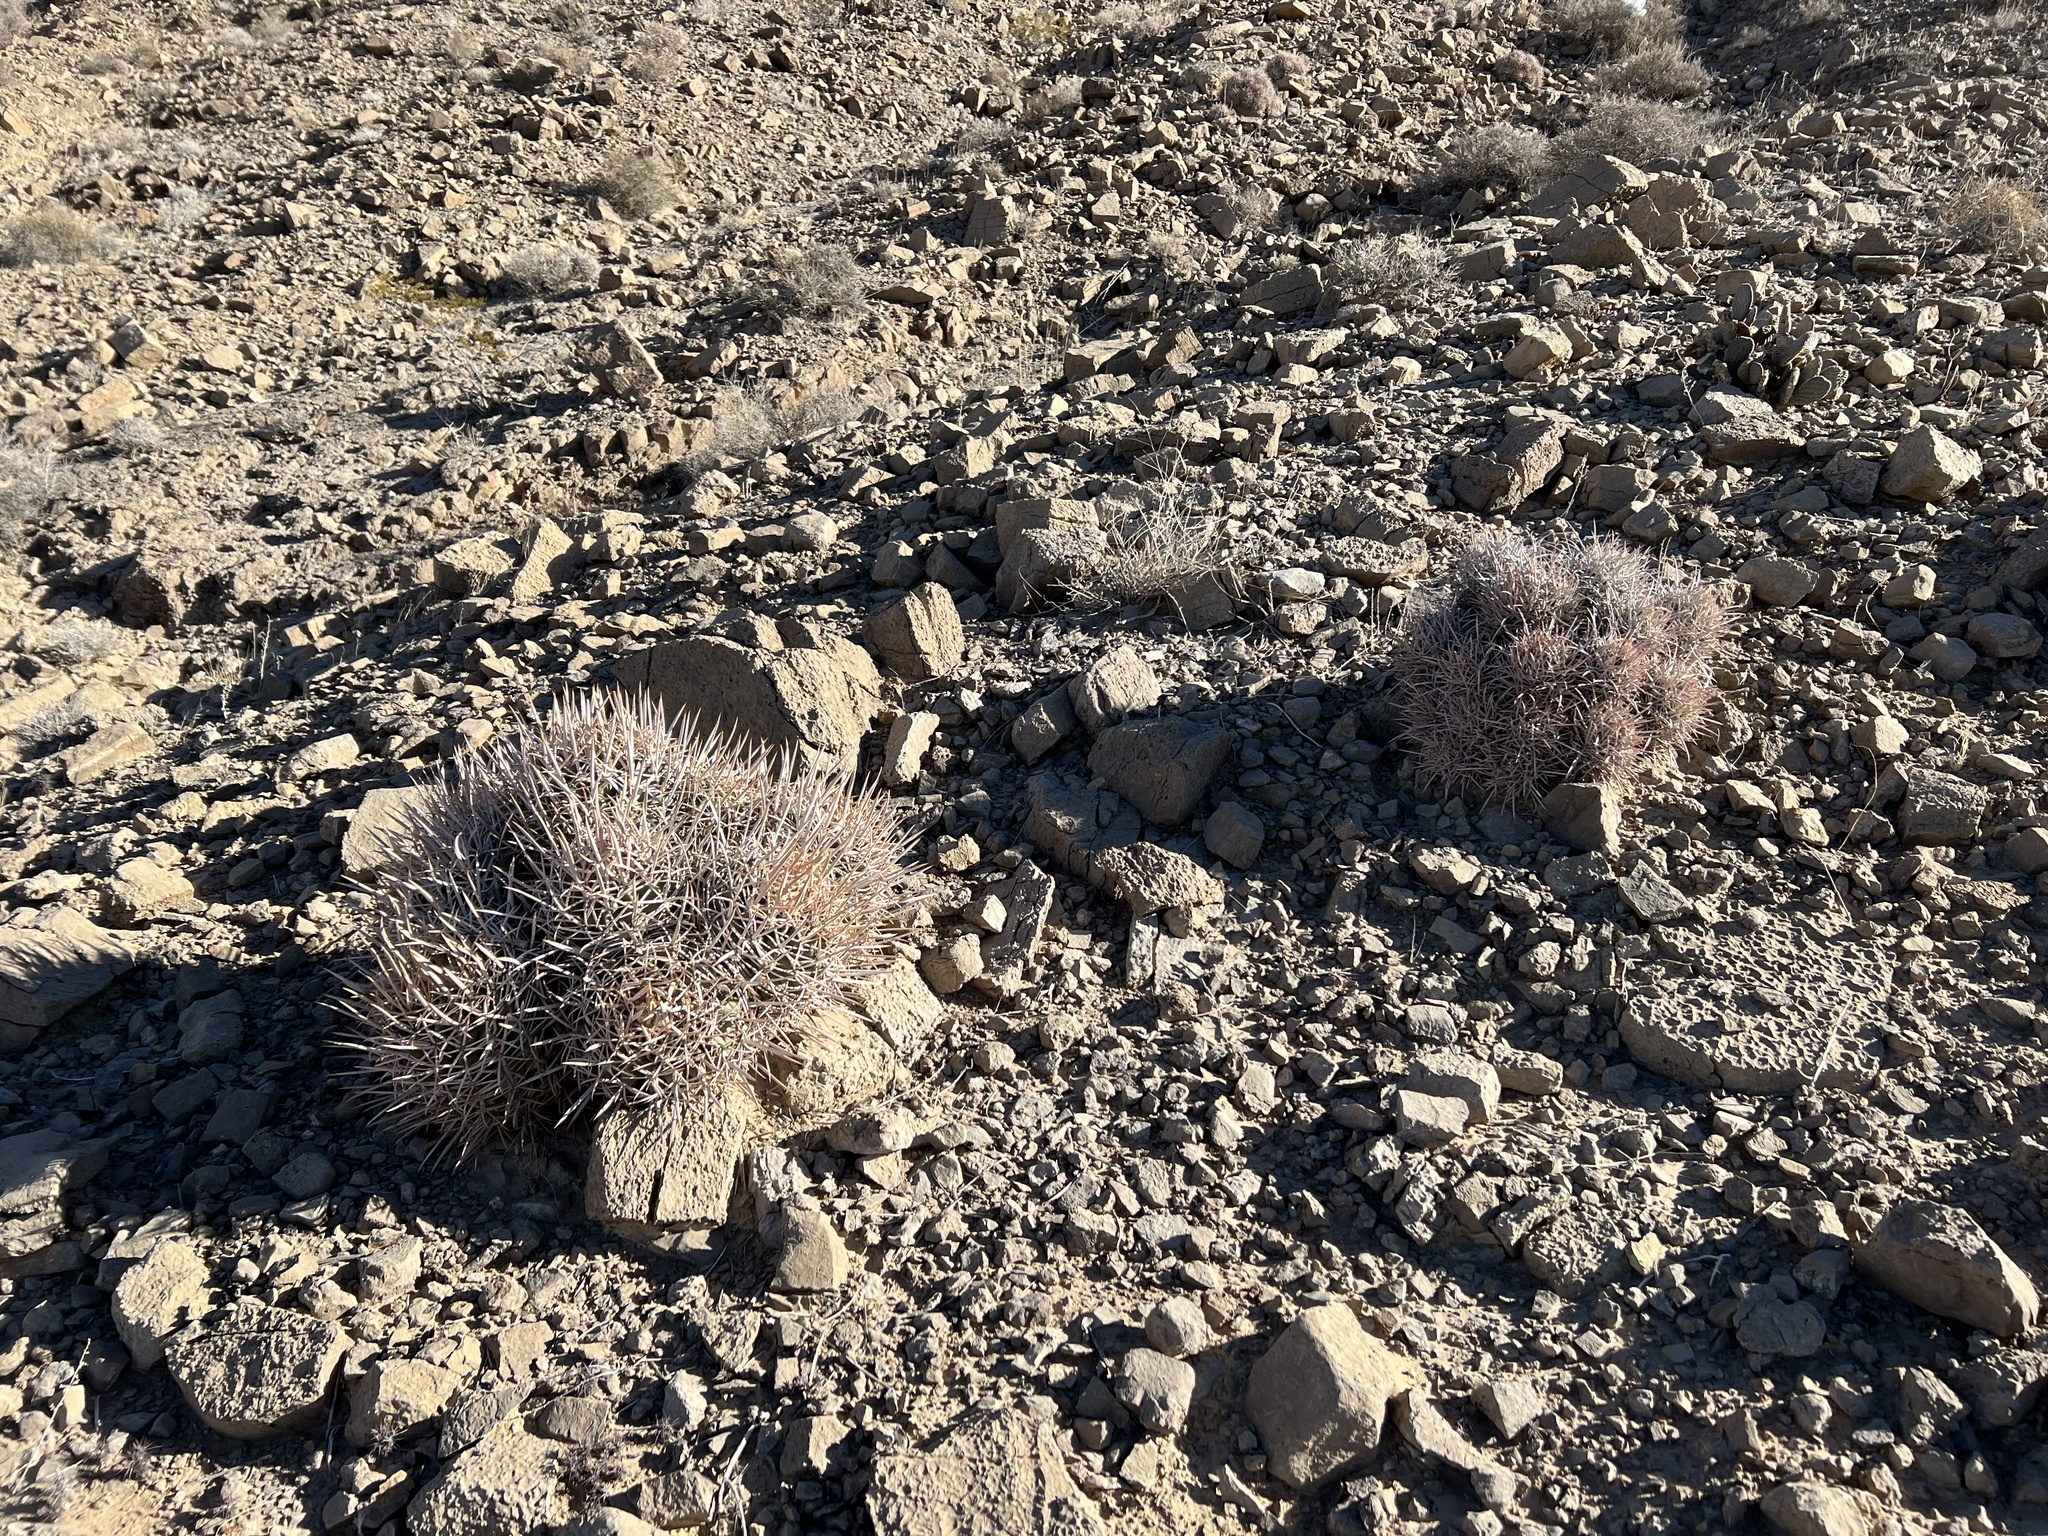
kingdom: Plantae
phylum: Tracheophyta
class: Magnoliopsida
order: Caryophyllales
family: Cactaceae
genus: Echinocactus
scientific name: Echinocactus polycephalus
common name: Cottontop cactus
